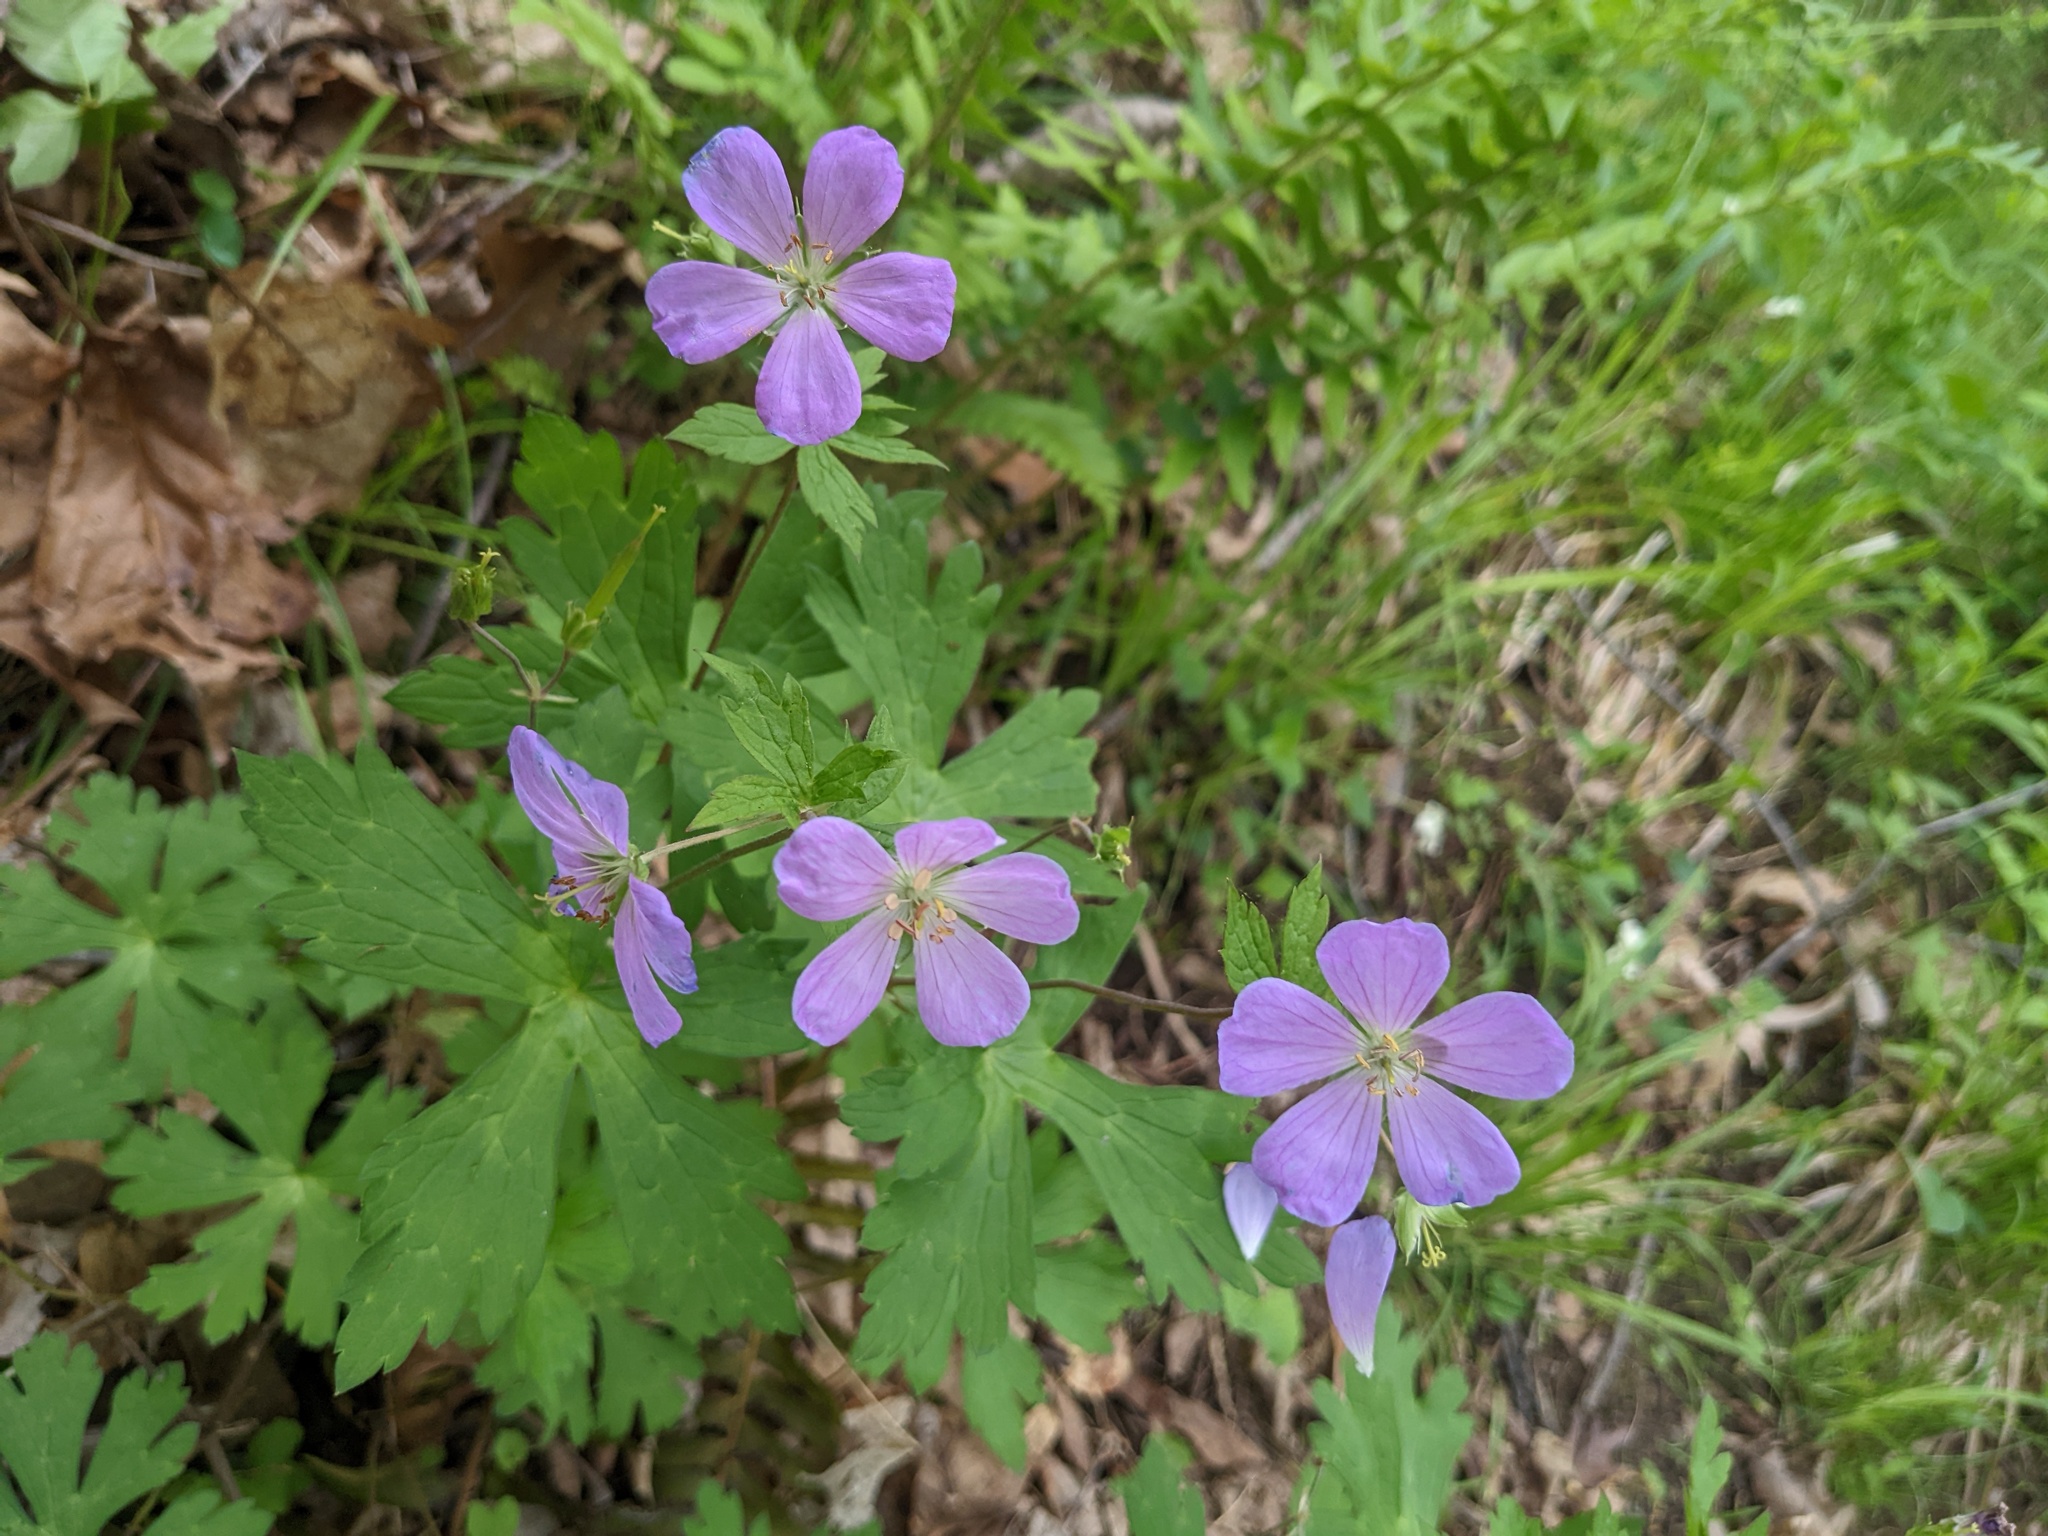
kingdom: Plantae
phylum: Tracheophyta
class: Magnoliopsida
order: Geraniales
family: Geraniaceae
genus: Geranium
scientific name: Geranium maculatum
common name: Spotted geranium
